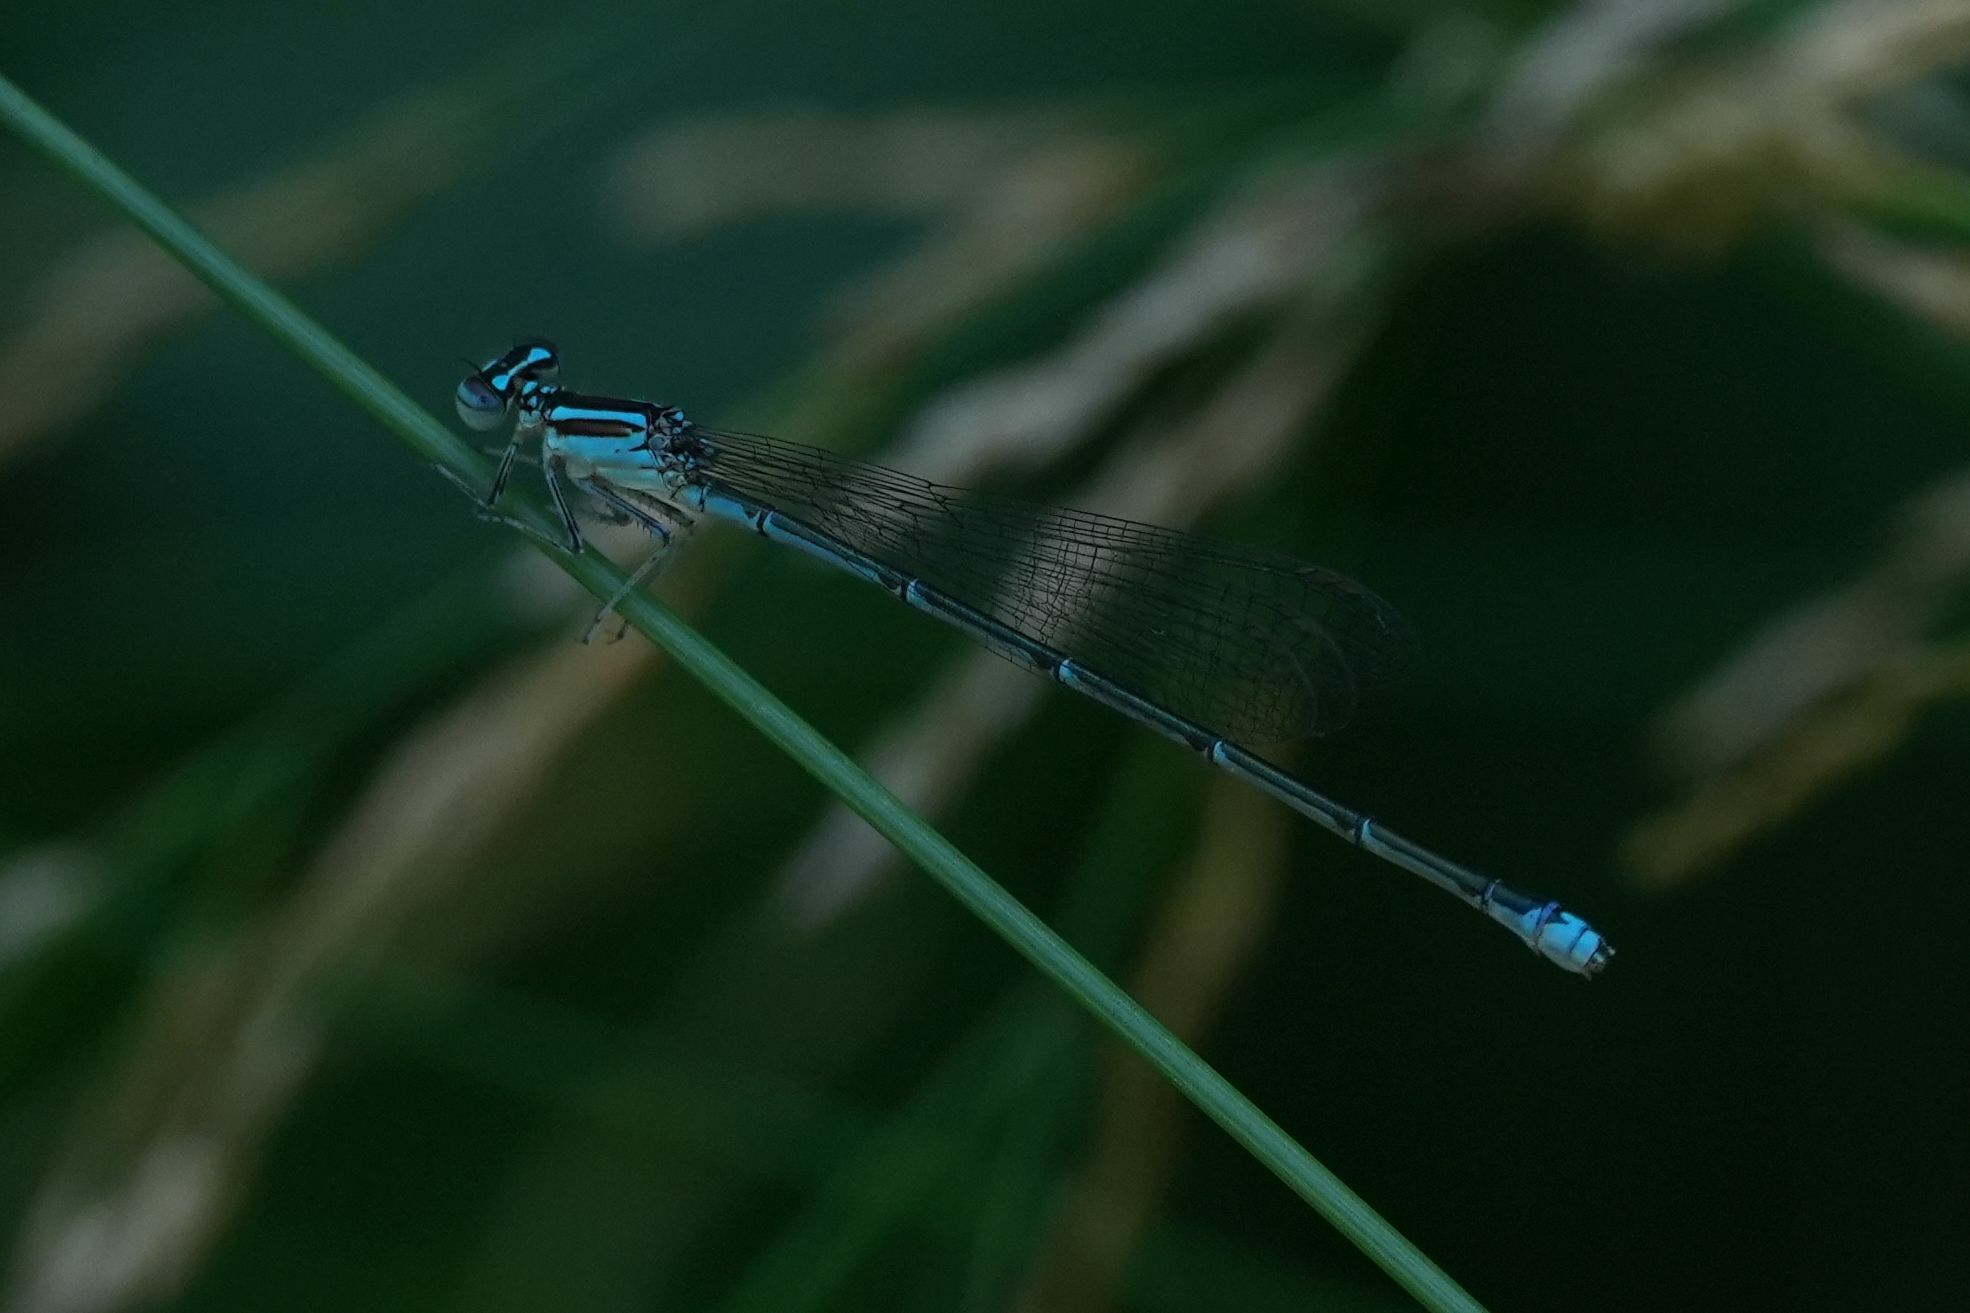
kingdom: Animalia
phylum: Arthropoda
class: Insecta
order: Odonata
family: Coenagrionidae
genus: Enallagma
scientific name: Enallagma exsulans
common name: Stream bluet
